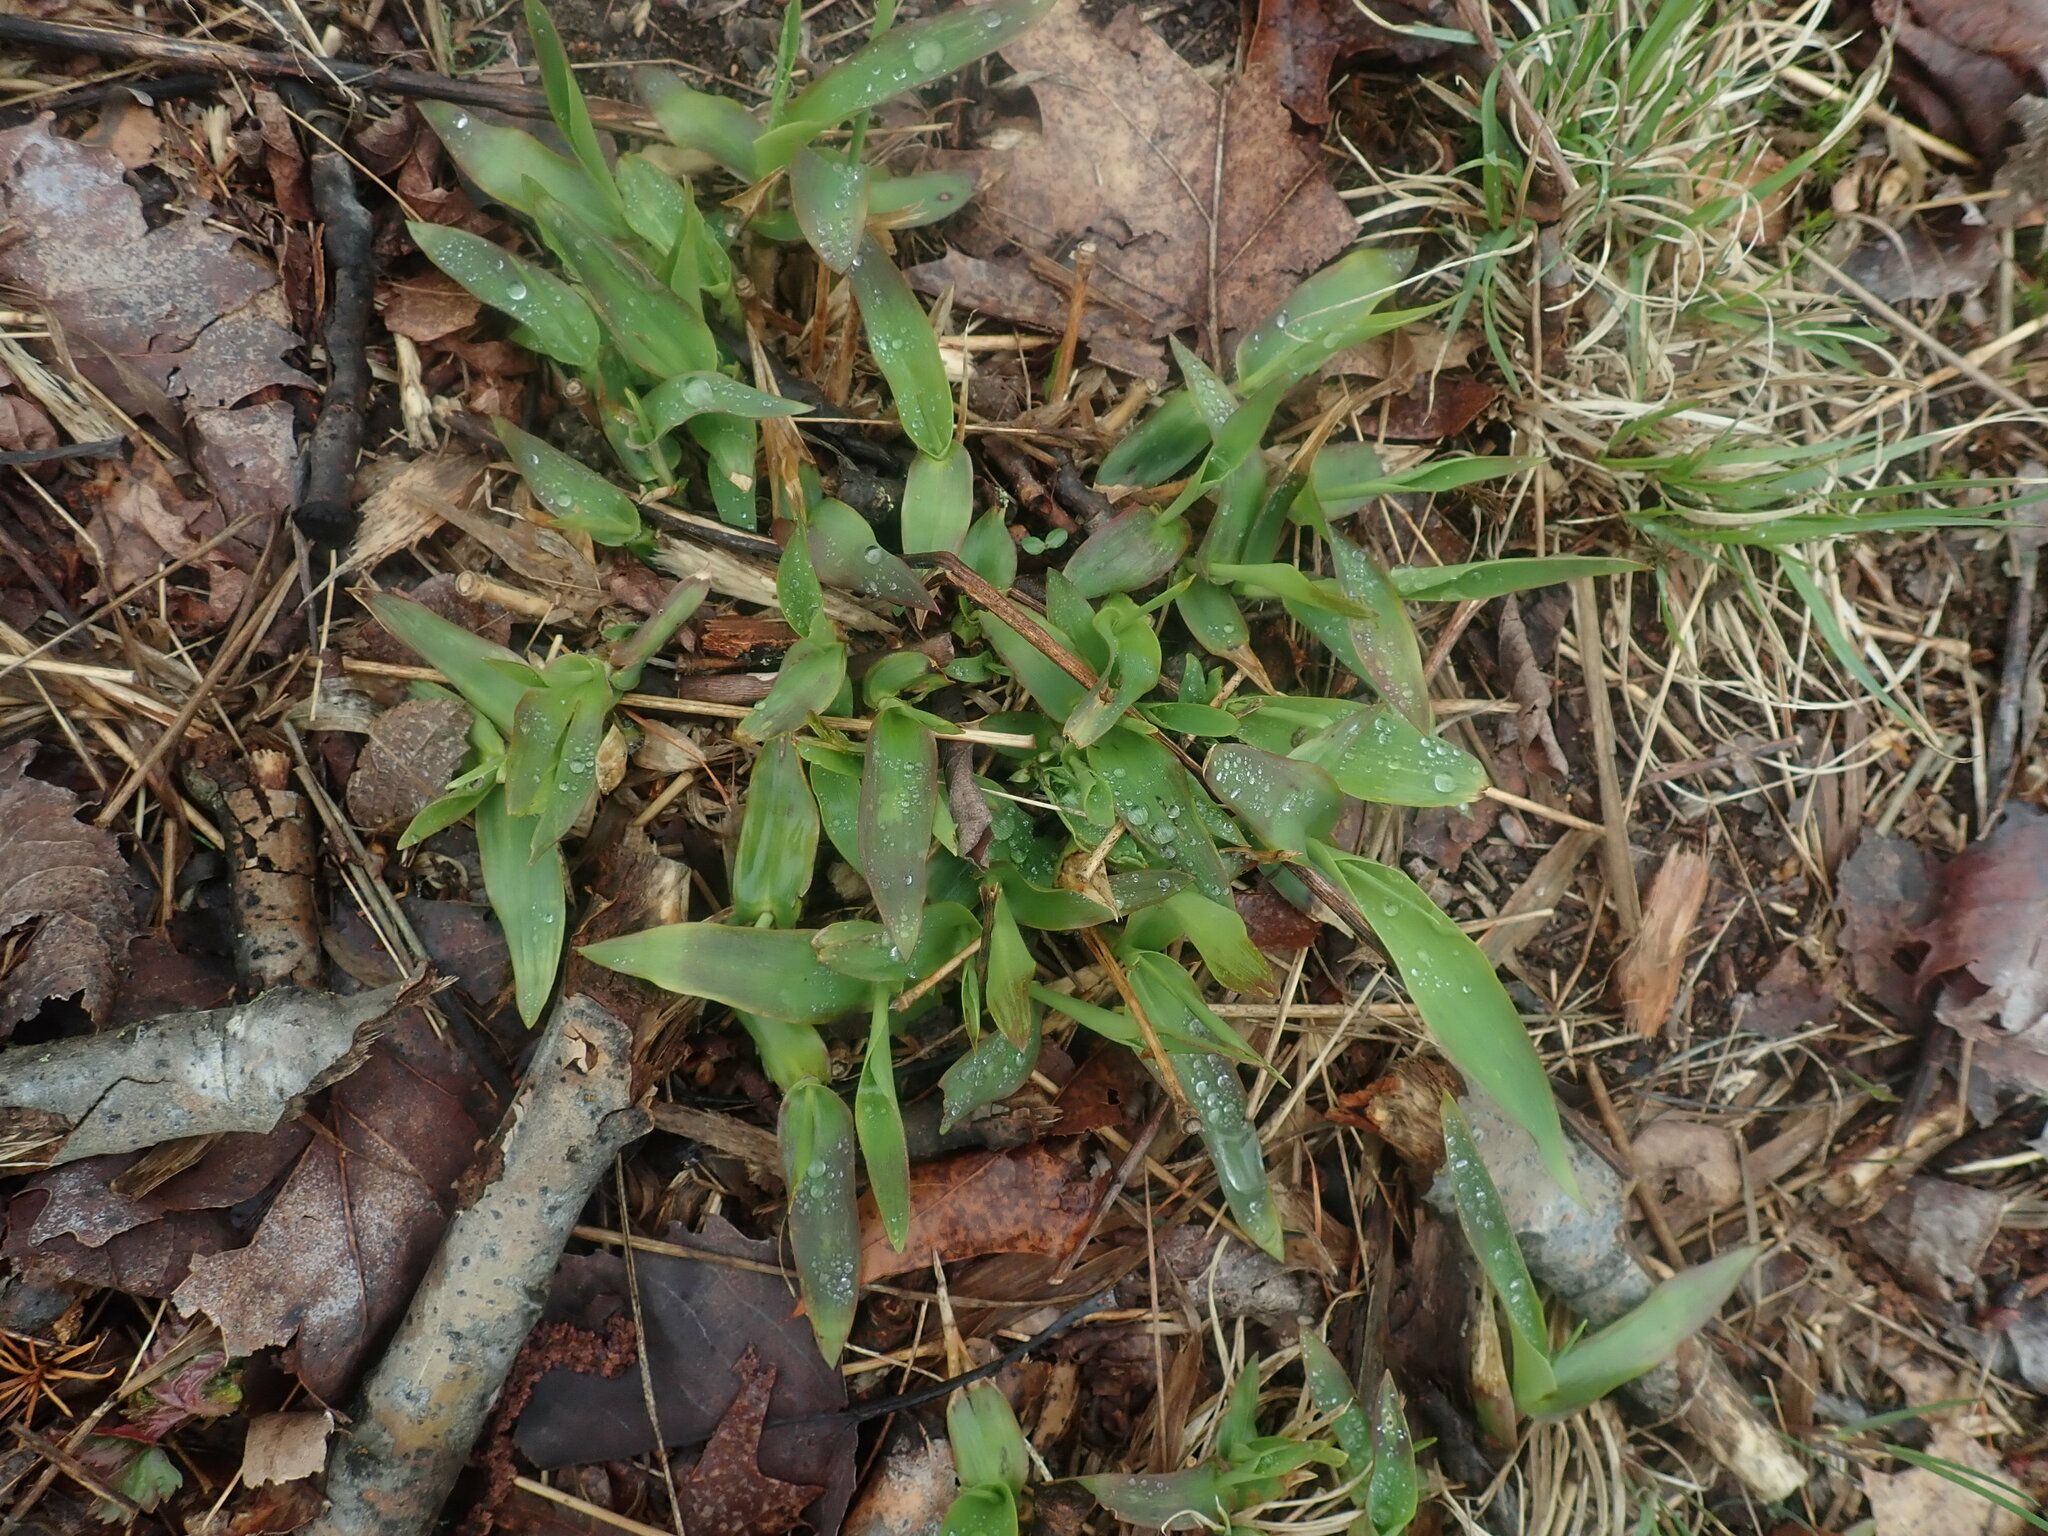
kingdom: Plantae
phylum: Tracheophyta
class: Liliopsida
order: Poales
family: Poaceae
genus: Dichanthelium
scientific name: Dichanthelium
